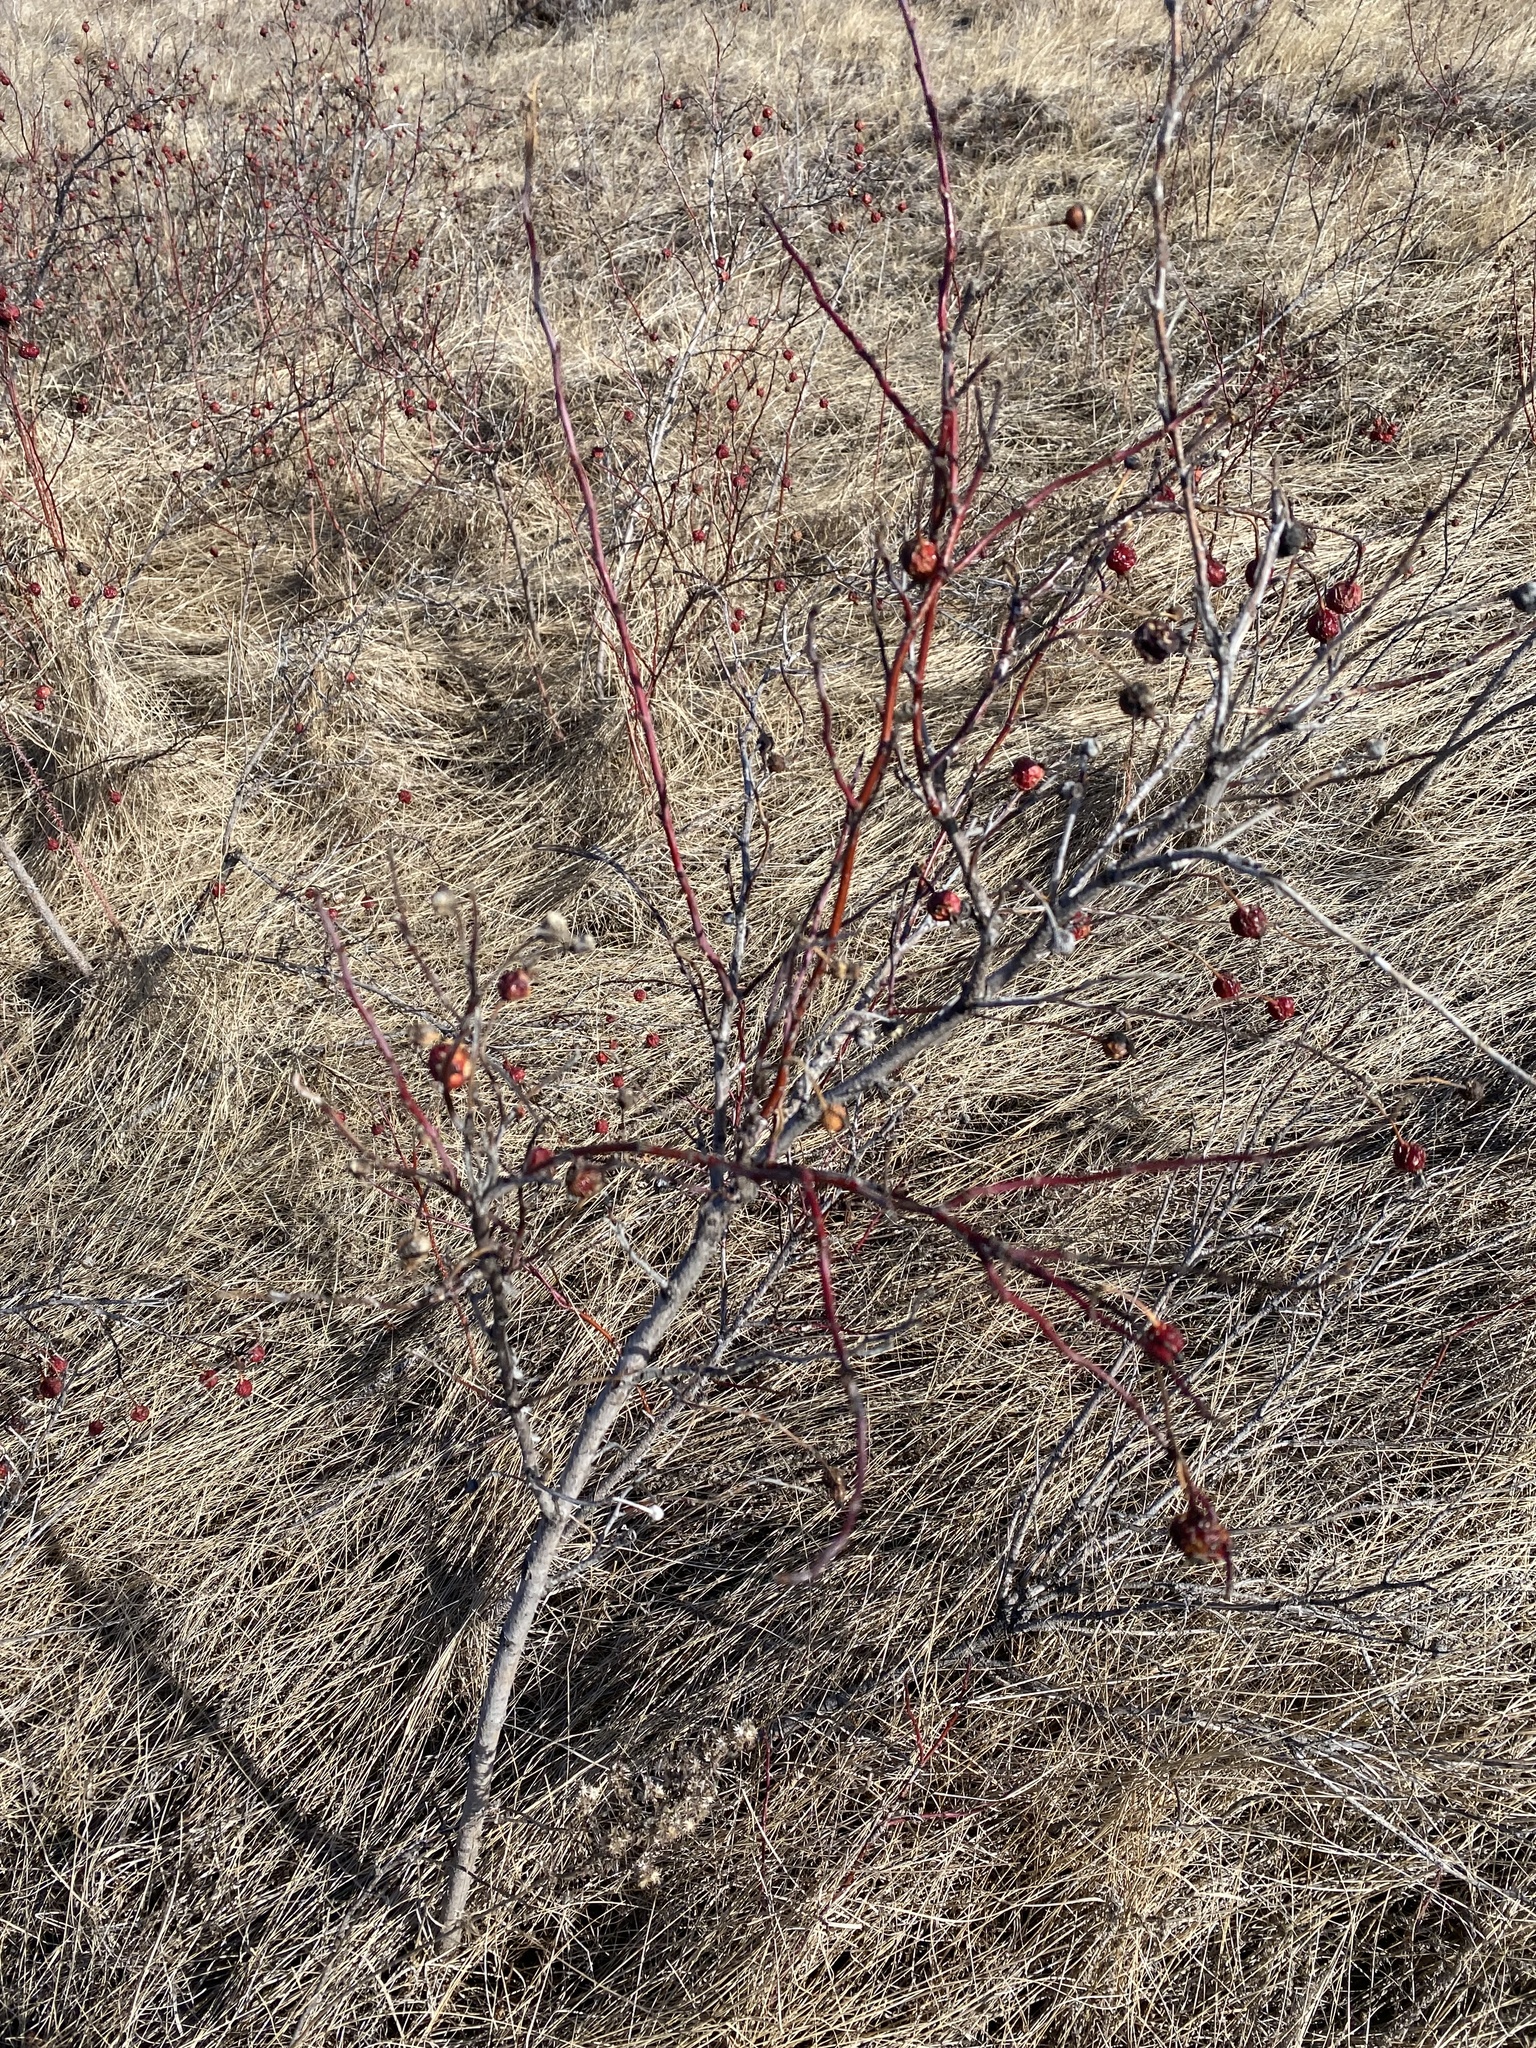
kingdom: Plantae
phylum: Tracheophyta
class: Magnoliopsida
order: Rosales
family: Rosaceae
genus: Rosa
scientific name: Rosa woodsii
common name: Woods's rose
